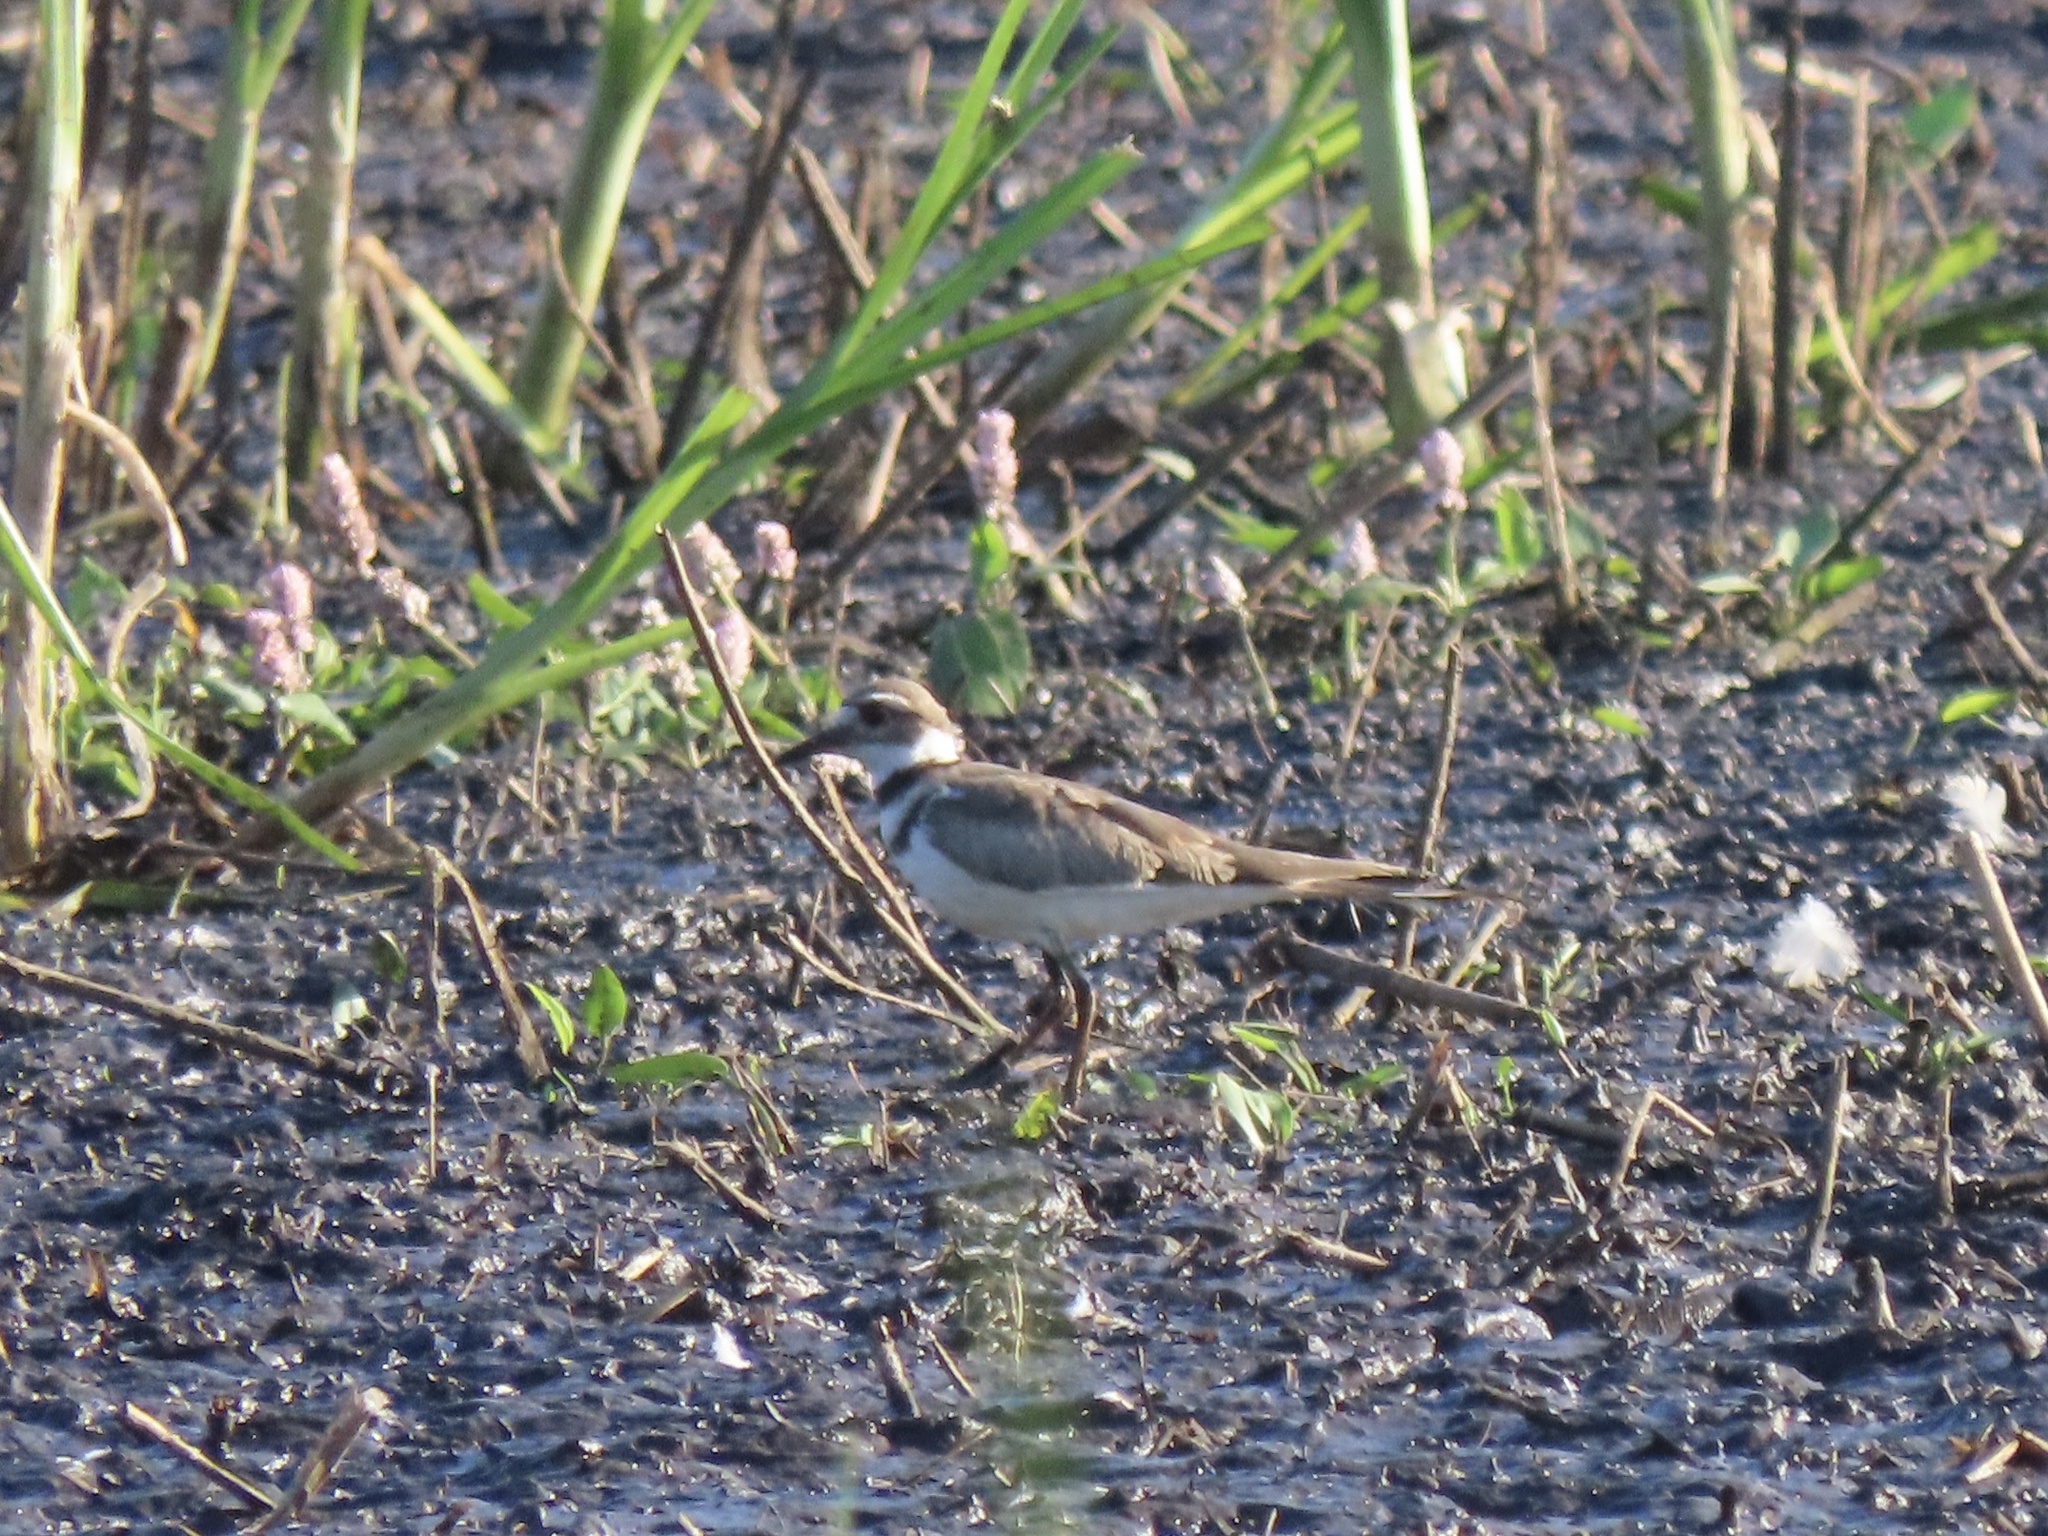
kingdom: Animalia
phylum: Chordata
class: Aves
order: Charadriiformes
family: Charadriidae
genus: Charadrius
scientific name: Charadrius vociferus
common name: Killdeer
